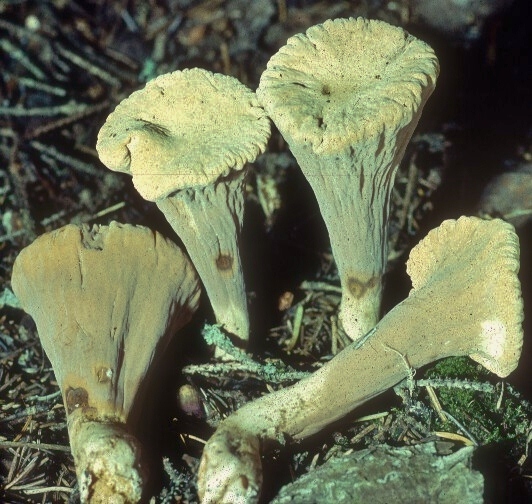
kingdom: Fungi
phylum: Basidiomycota
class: Agaricomycetes
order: Gomphales
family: Clavariadelphaceae
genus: Clavariadelphus
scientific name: Clavariadelphus truncatus
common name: Truncated club
